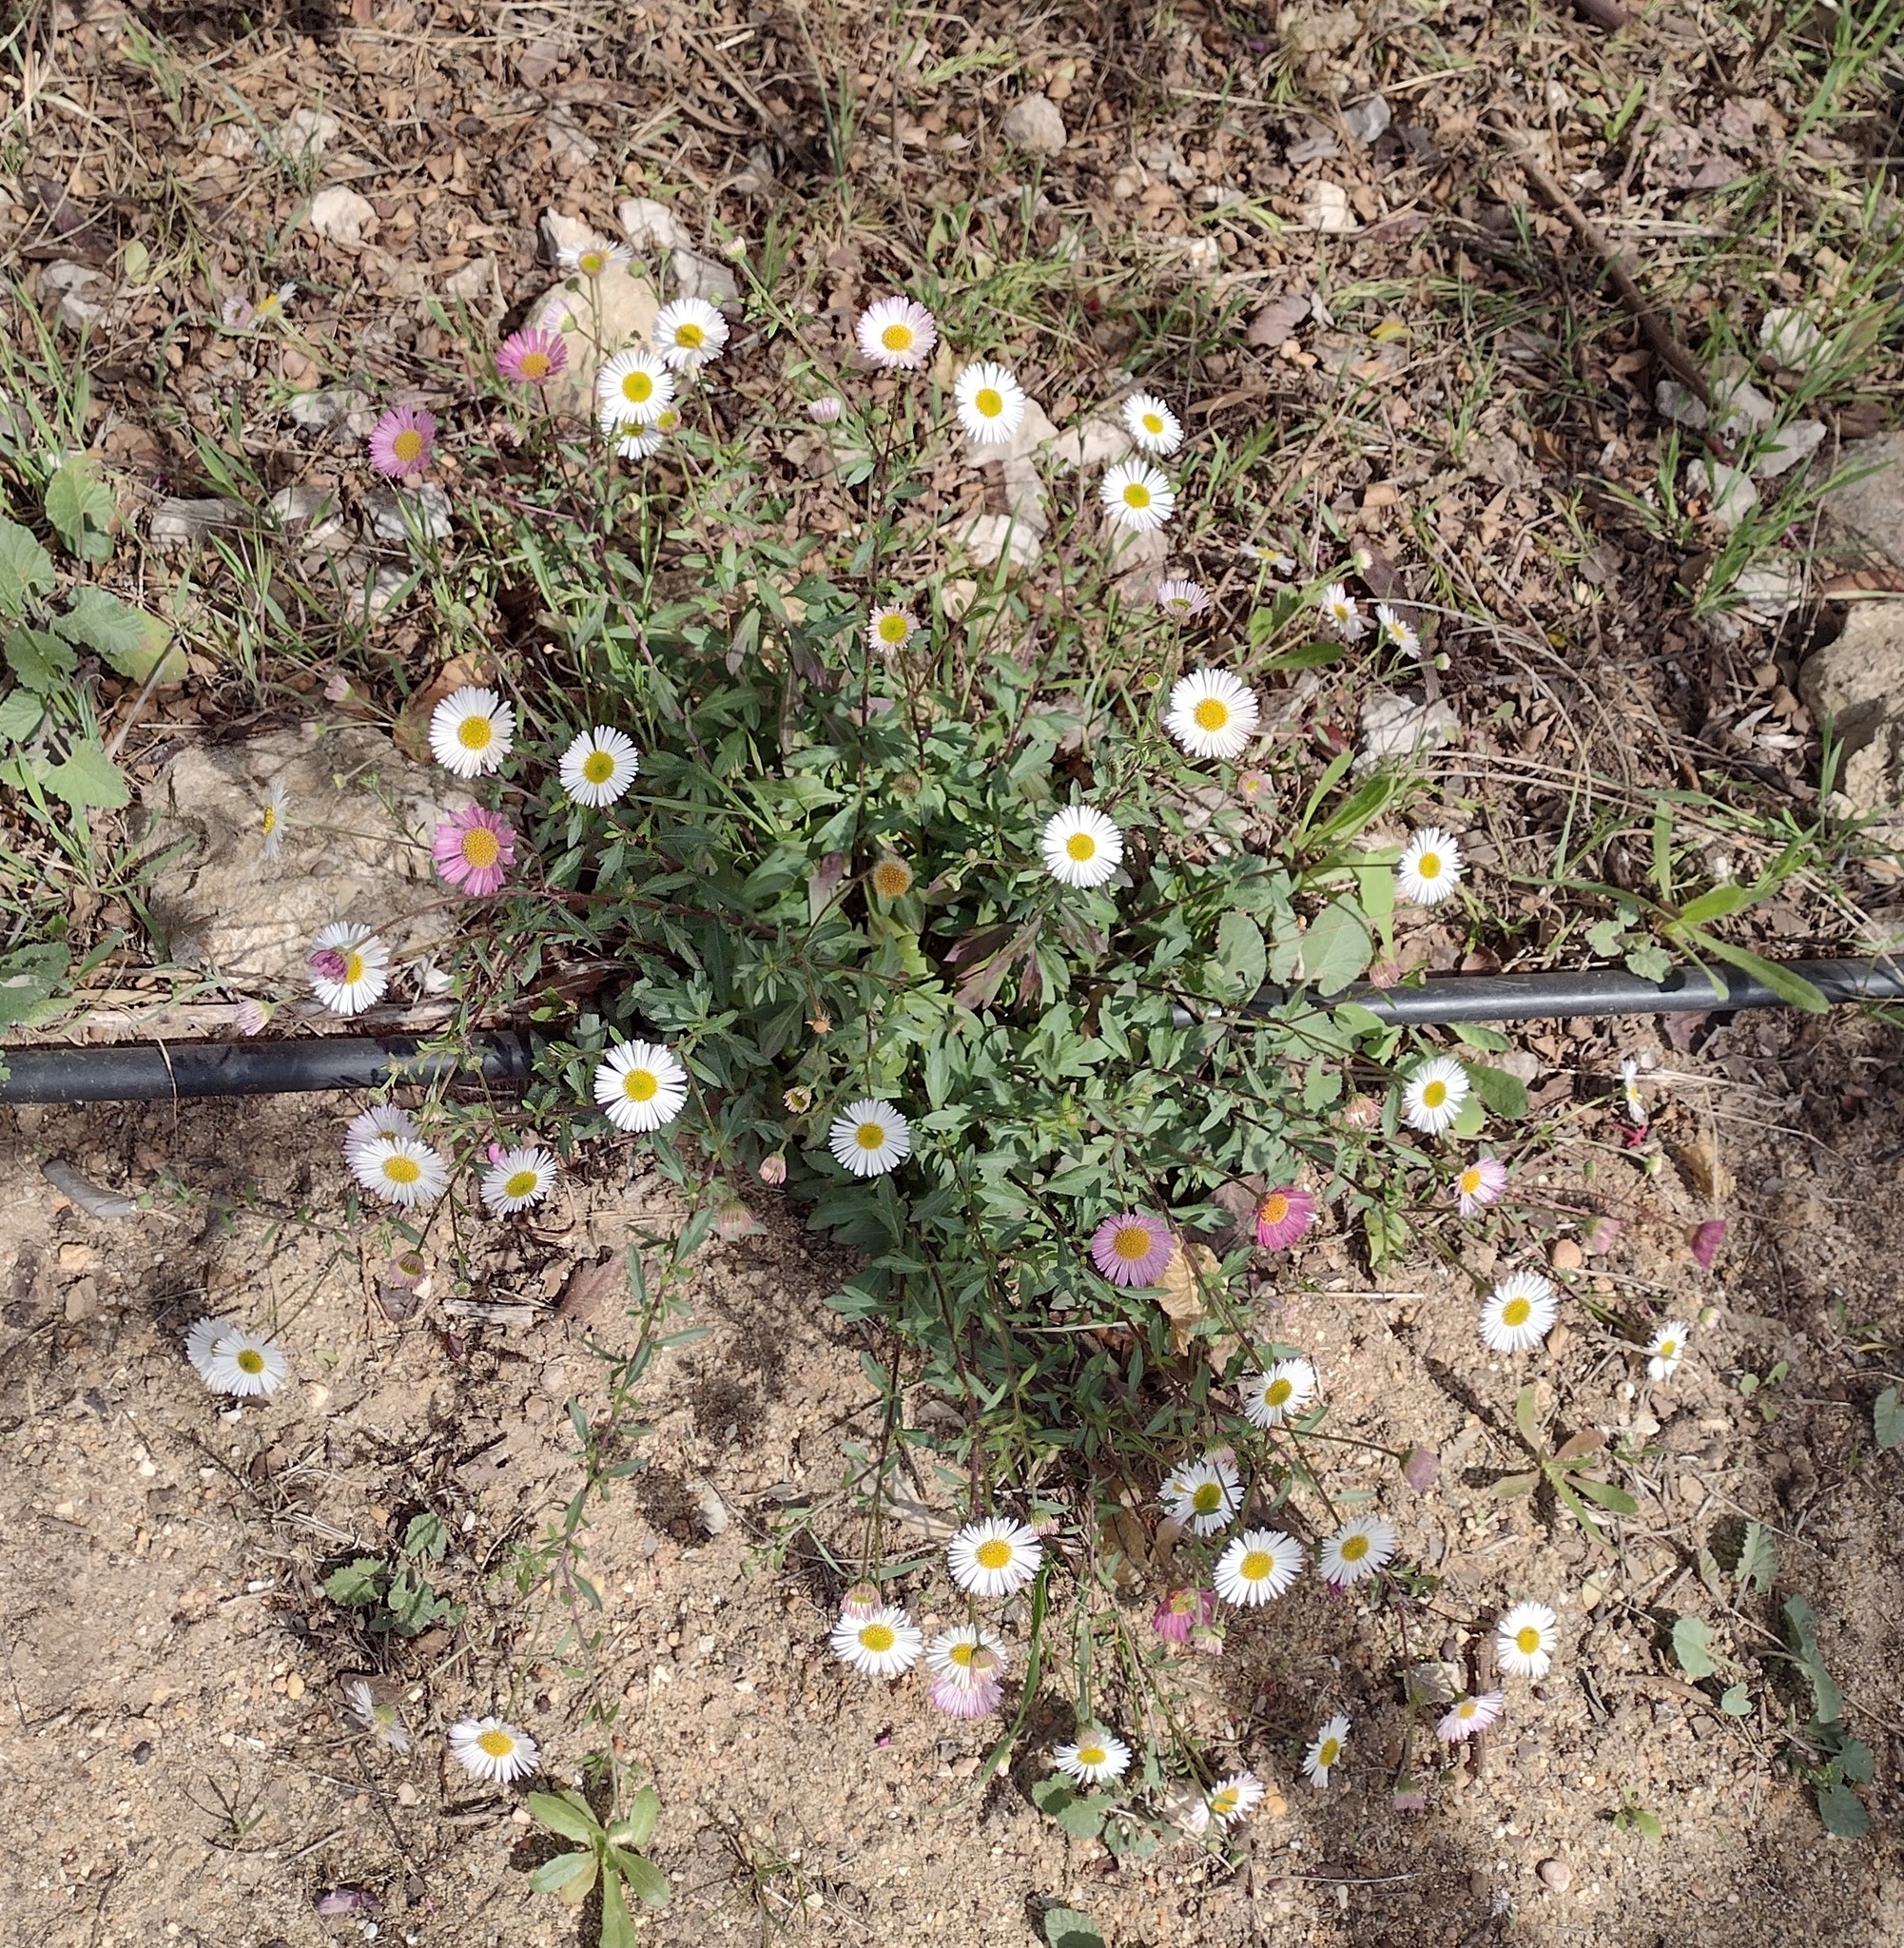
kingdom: Plantae
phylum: Tracheophyta
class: Magnoliopsida
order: Asterales
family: Asteraceae
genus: Erigeron
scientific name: Erigeron karvinskianus
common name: Mexican fleabane
